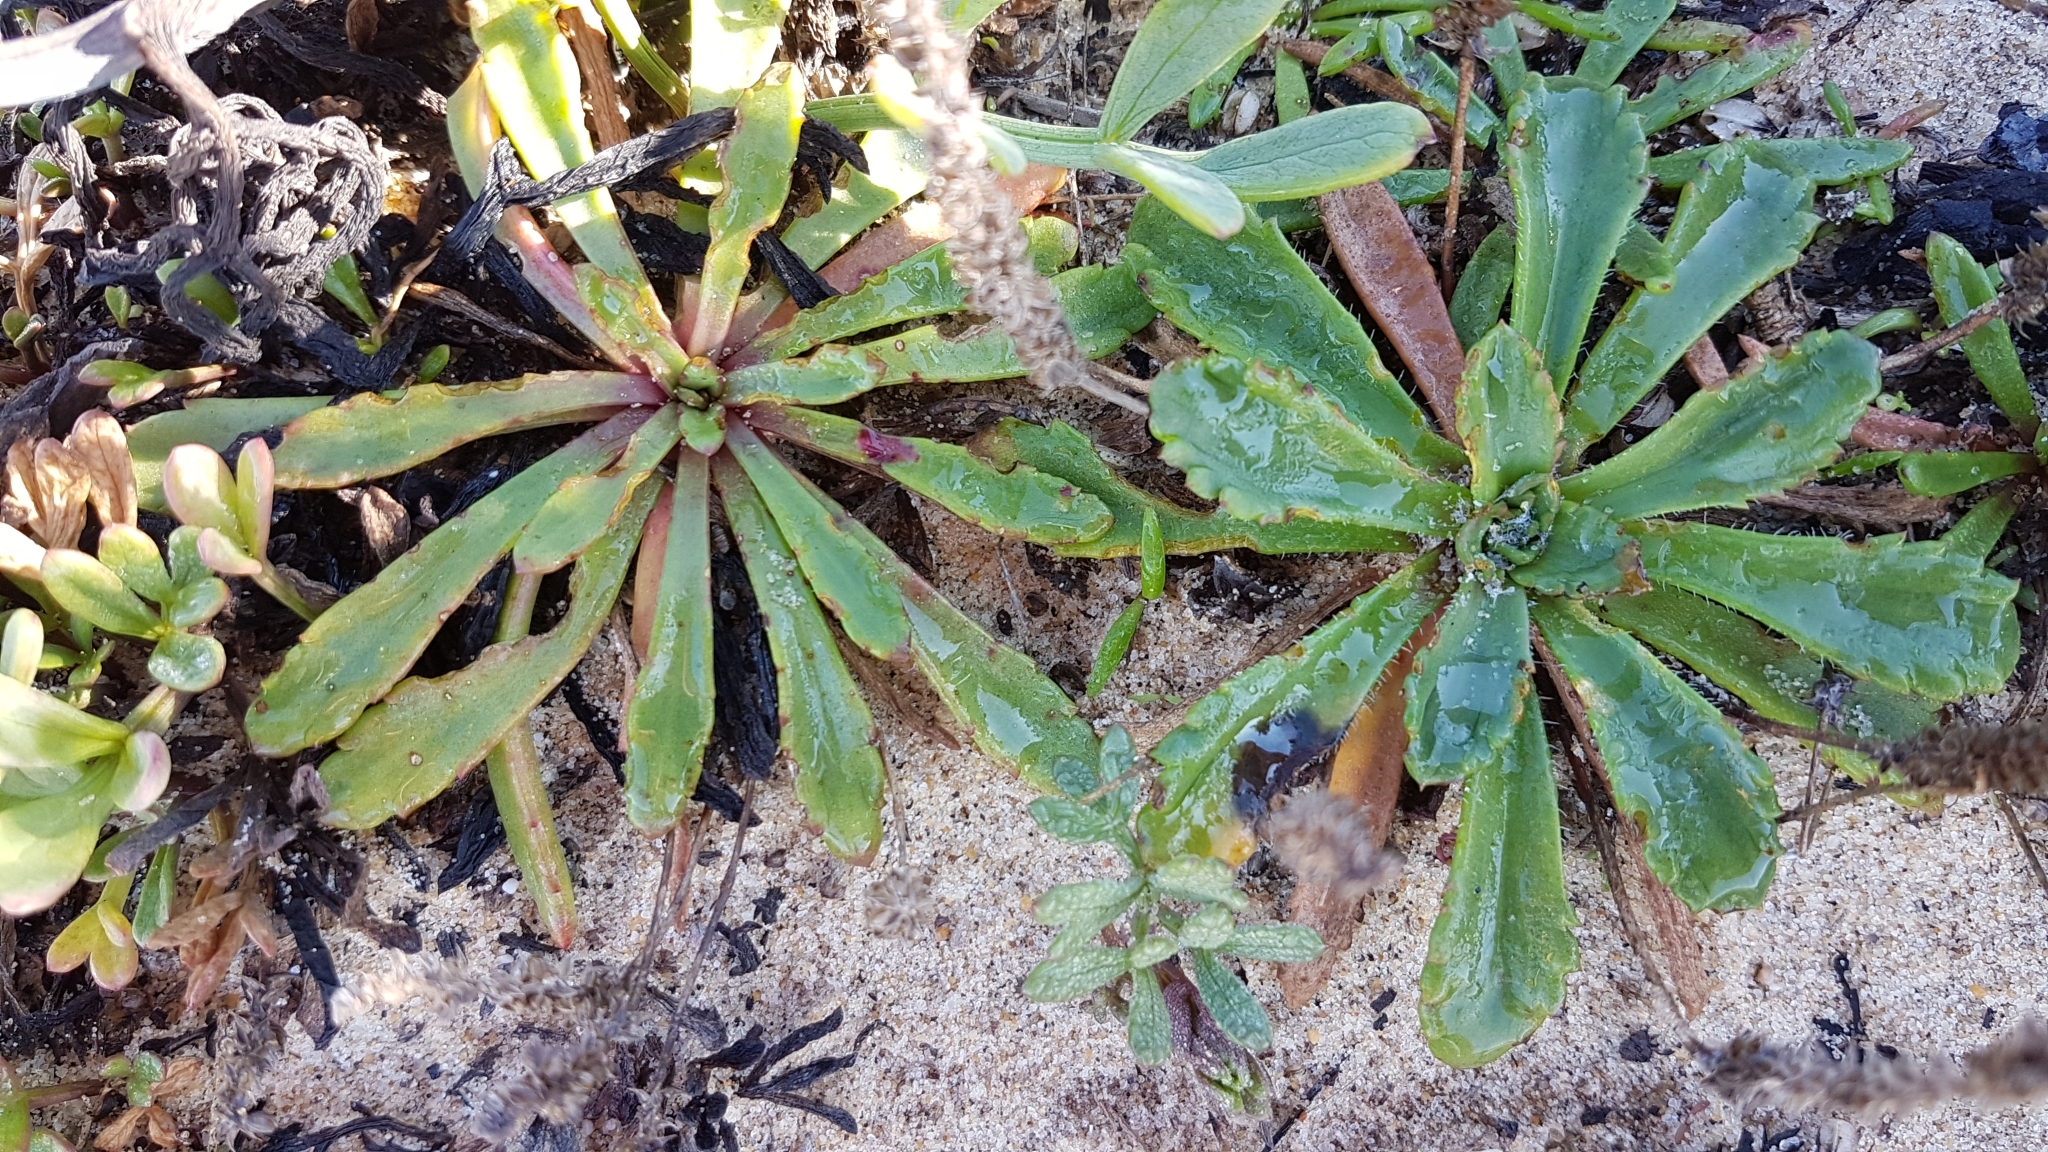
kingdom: Plantae
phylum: Tracheophyta
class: Magnoliopsida
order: Lamiales
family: Plantaginaceae
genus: Plantago
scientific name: Plantago coronopus
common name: Buck's-horn plantain
